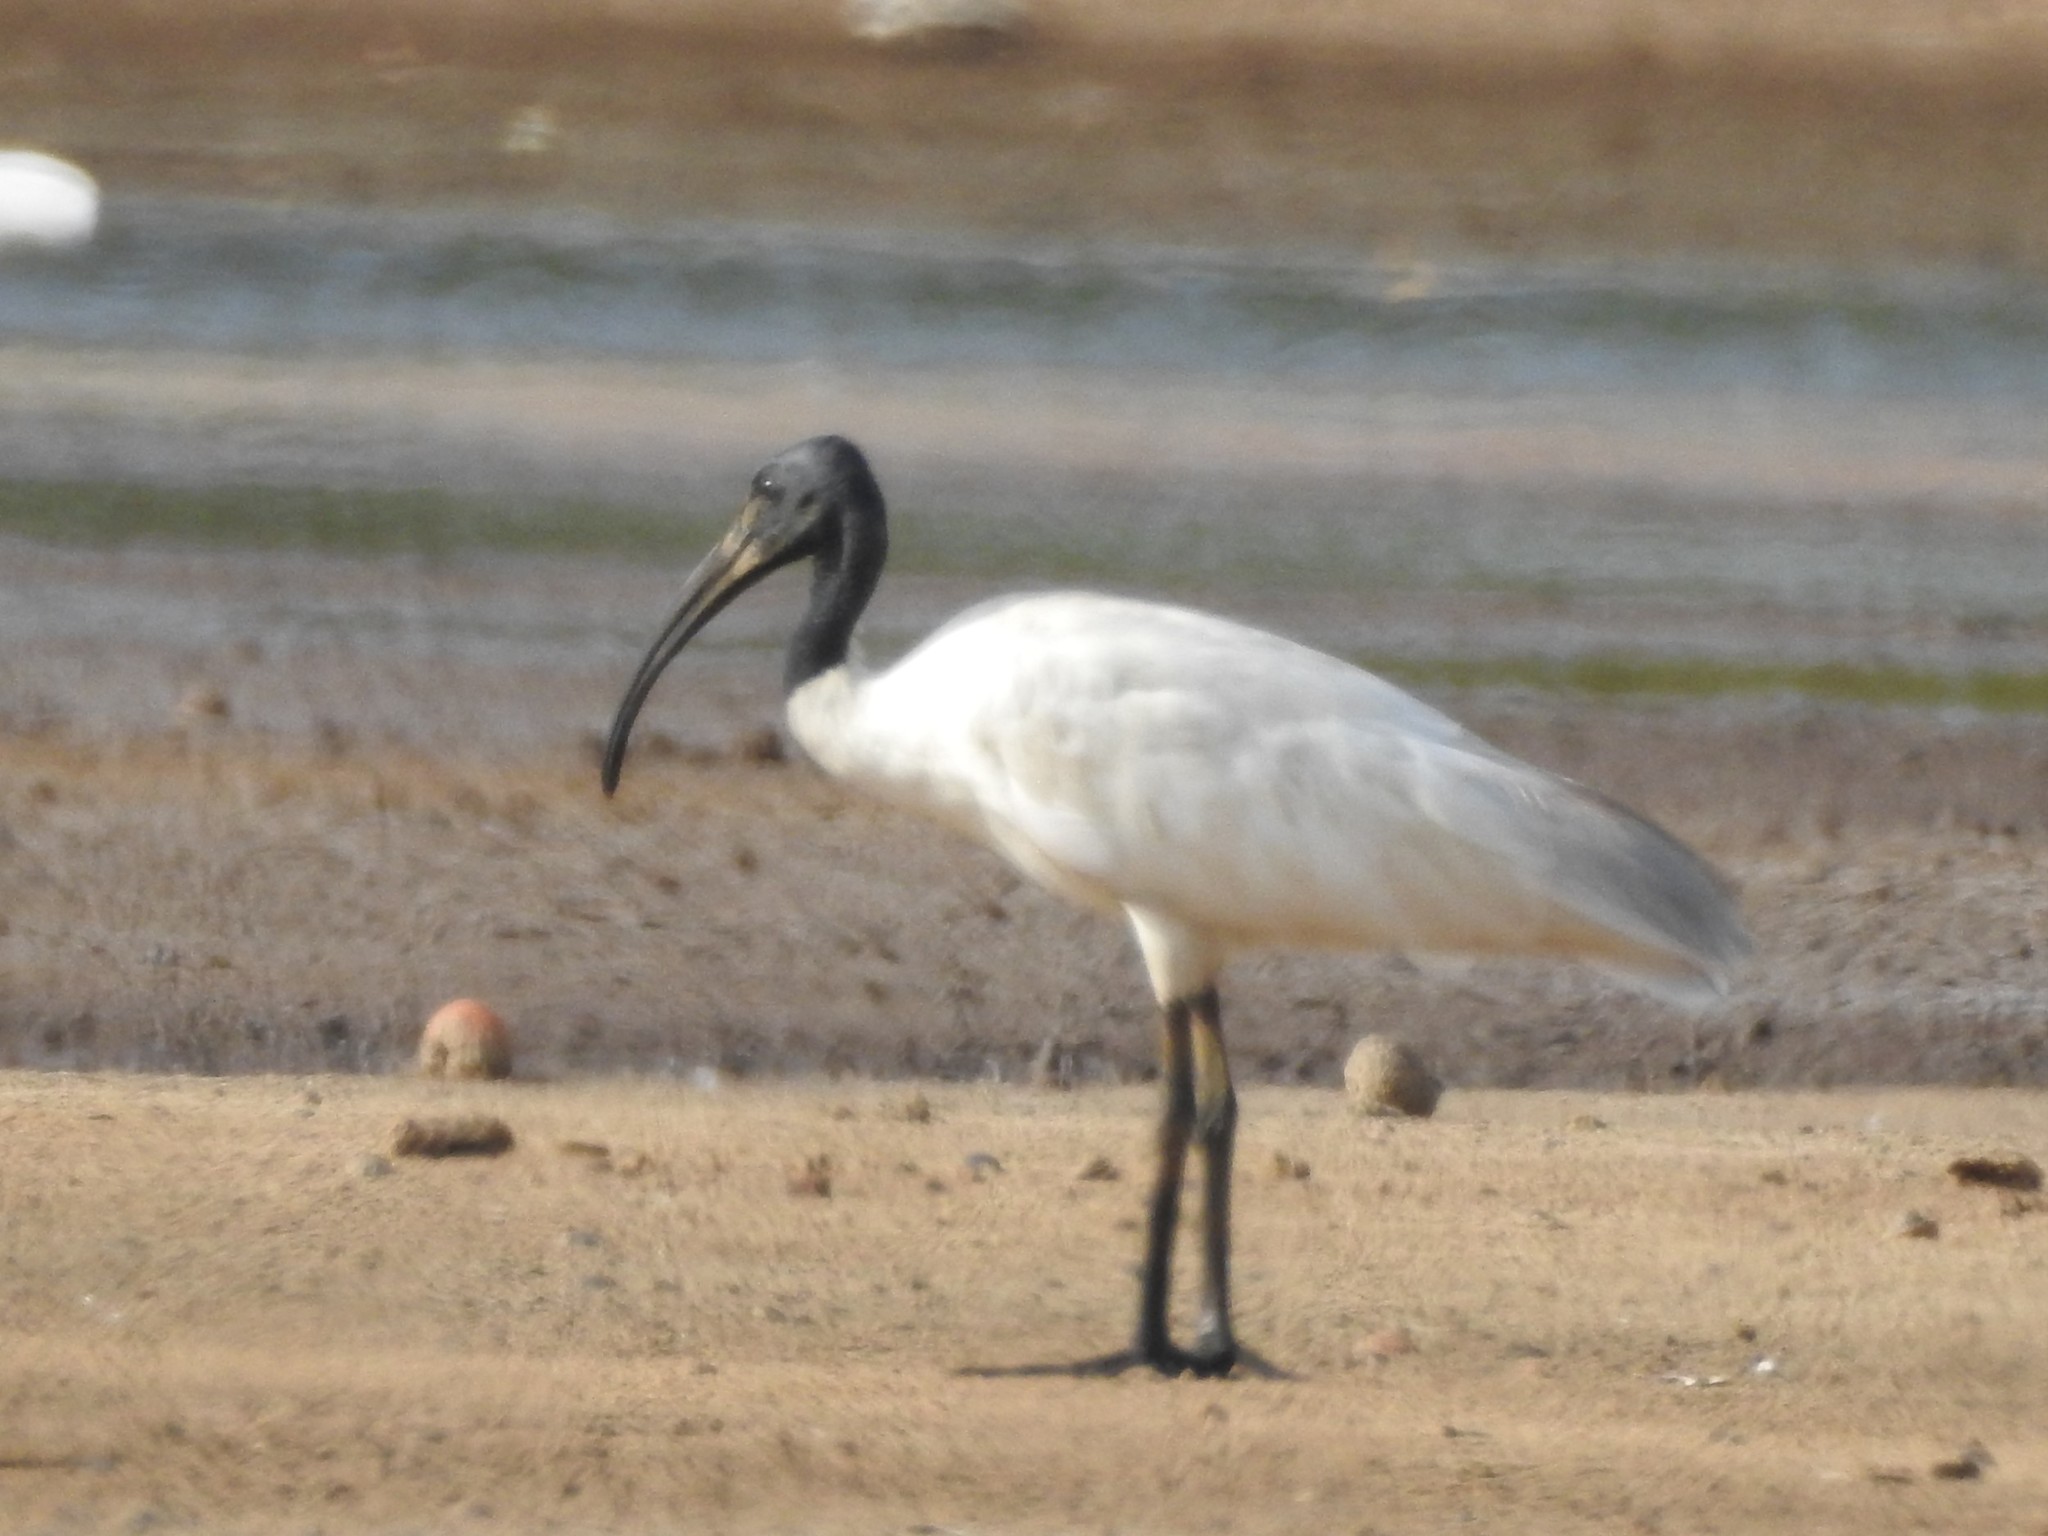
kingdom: Animalia
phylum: Chordata
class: Aves
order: Pelecaniformes
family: Threskiornithidae
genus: Threskiornis
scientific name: Threskiornis melanocephalus
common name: Black-headed ibis
